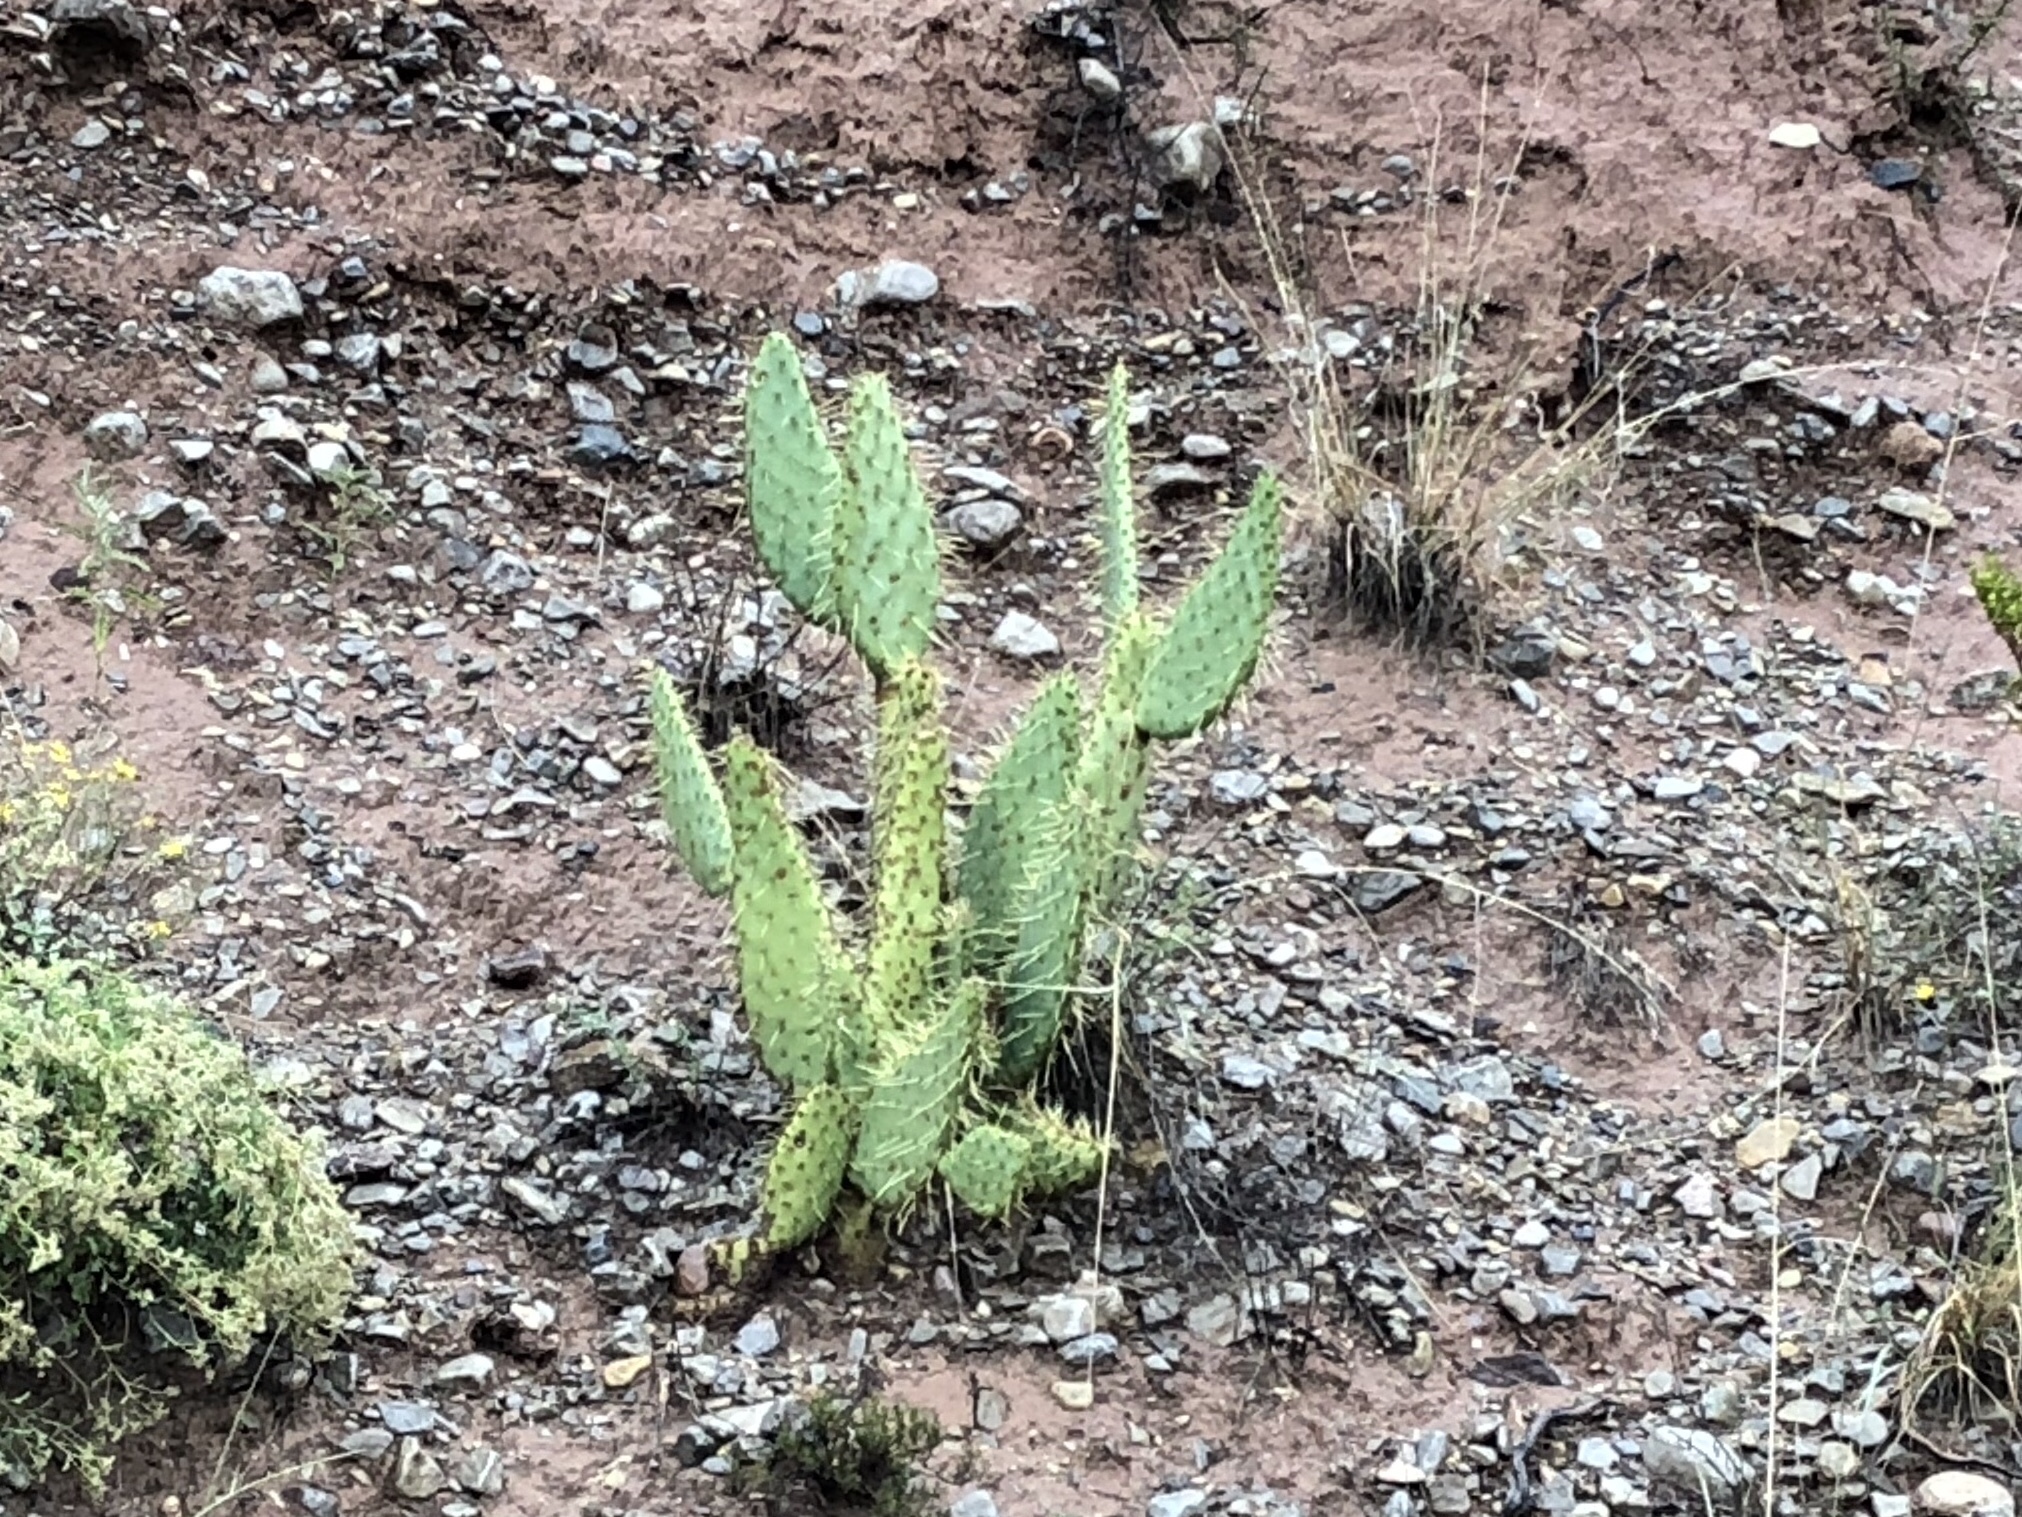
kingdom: Plantae
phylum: Tracheophyta
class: Magnoliopsida
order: Caryophyllales
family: Cactaceae
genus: Opuntia
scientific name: Opuntia engelmannii
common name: Cactus-apple
